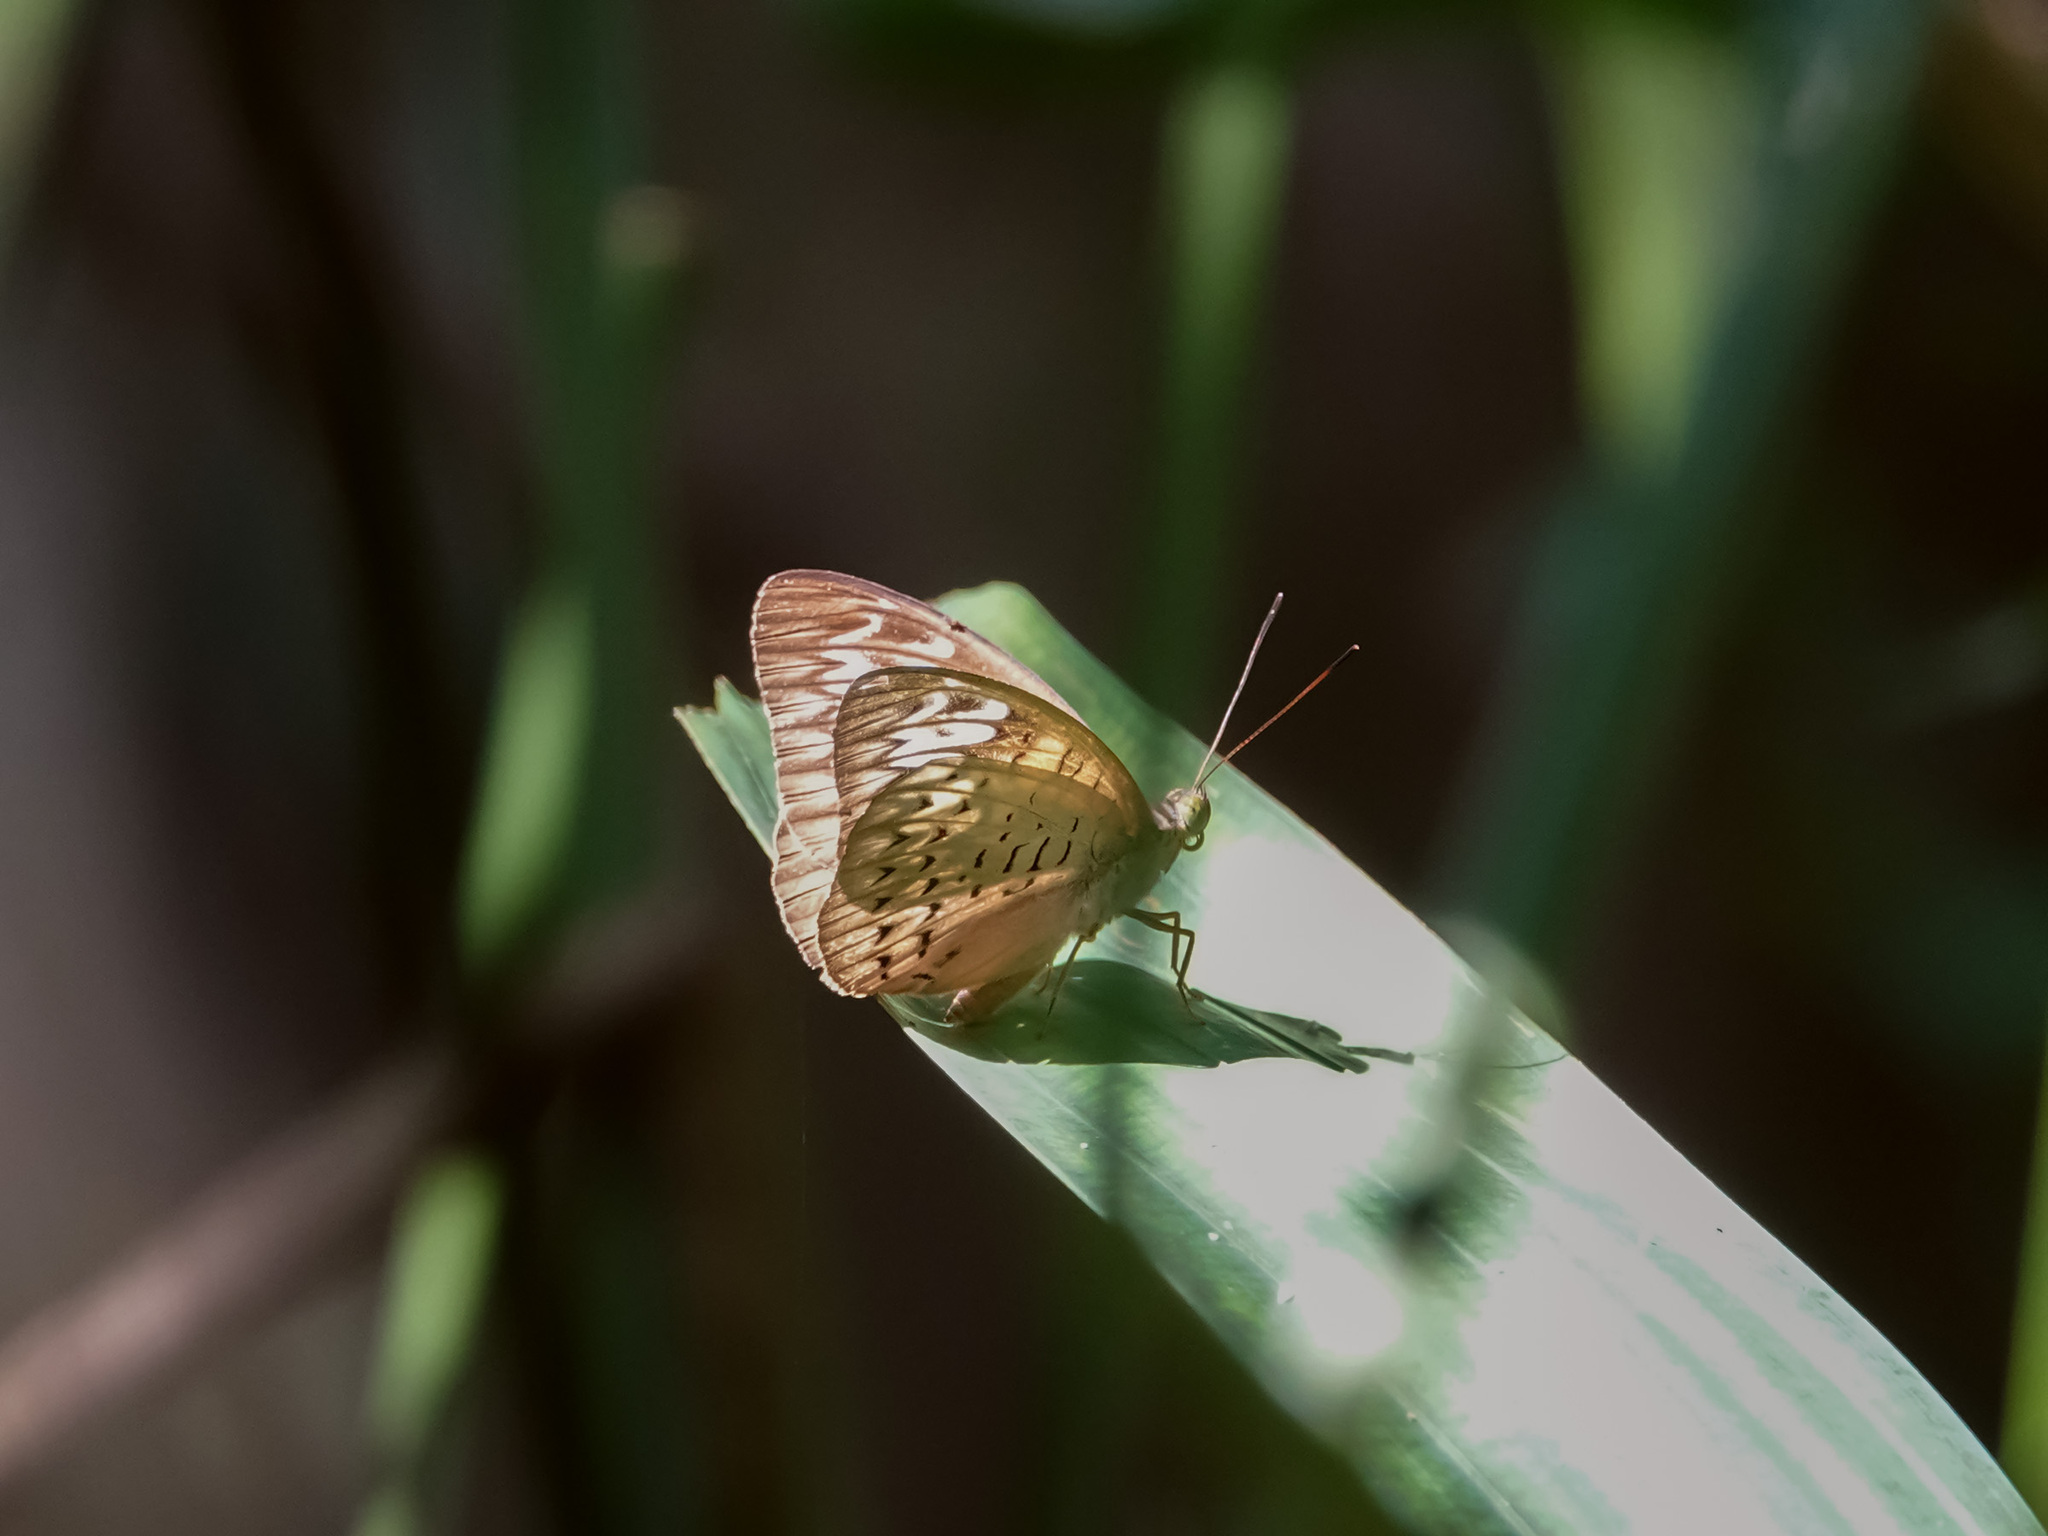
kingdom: Animalia
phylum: Arthropoda
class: Insecta
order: Lepidoptera
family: Nymphalidae
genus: Tanaecia
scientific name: Tanaecia pelea
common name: Malay viscount
